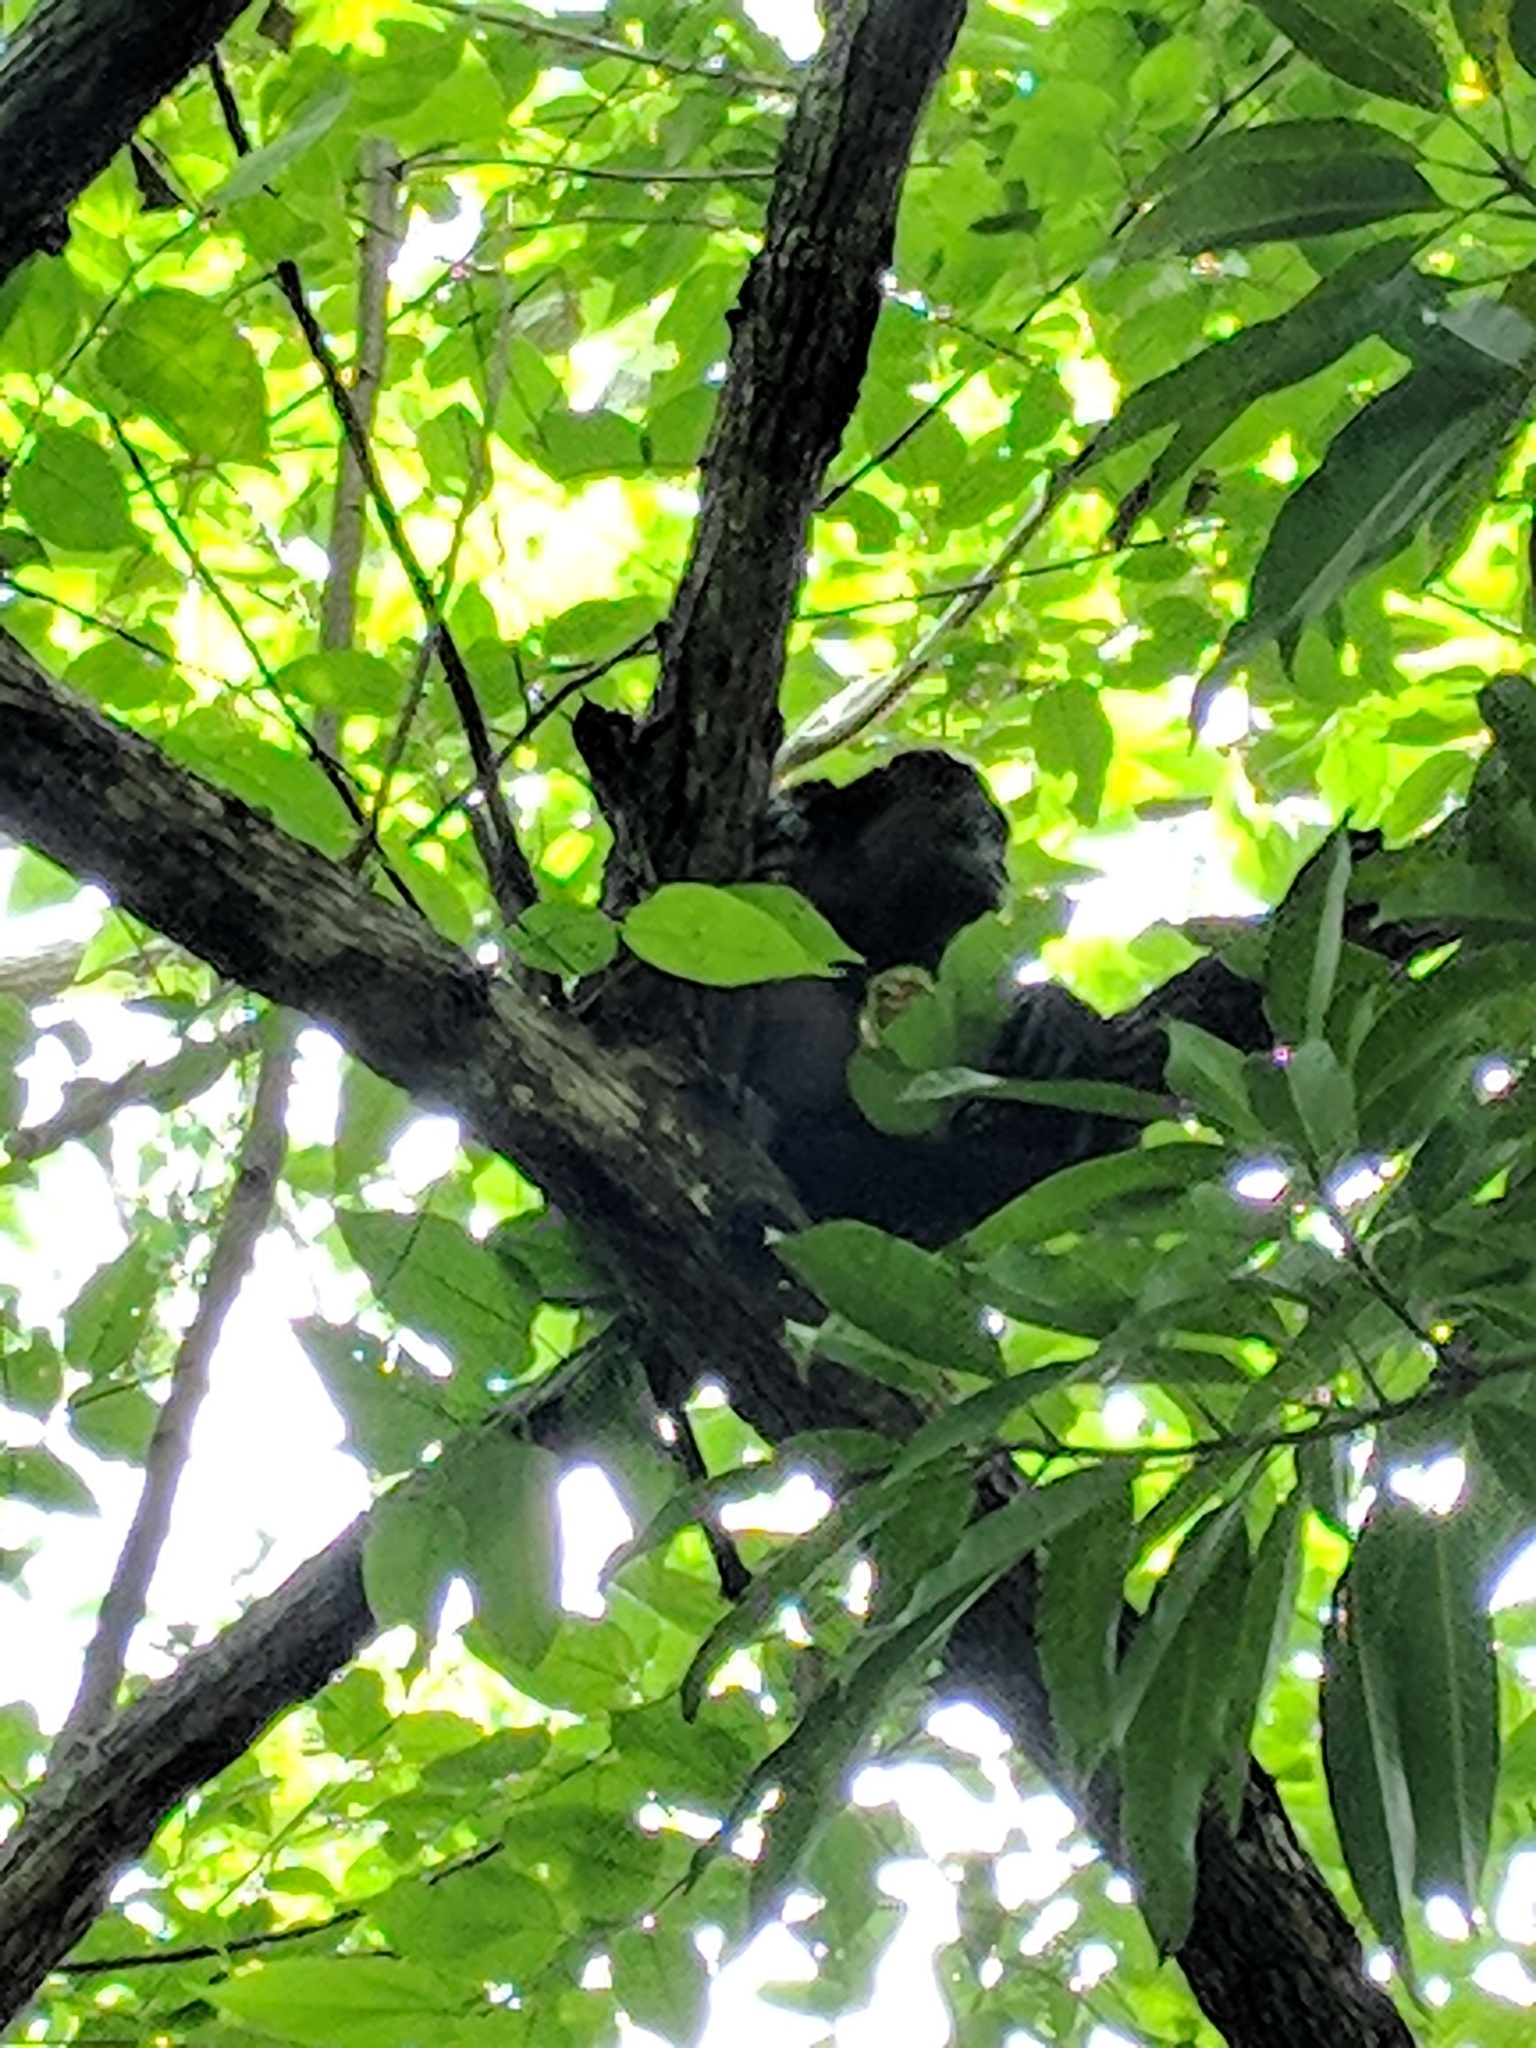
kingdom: Animalia
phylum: Chordata
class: Mammalia
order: Primates
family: Atelidae
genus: Alouatta
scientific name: Alouatta palliata
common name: Mantled howler
